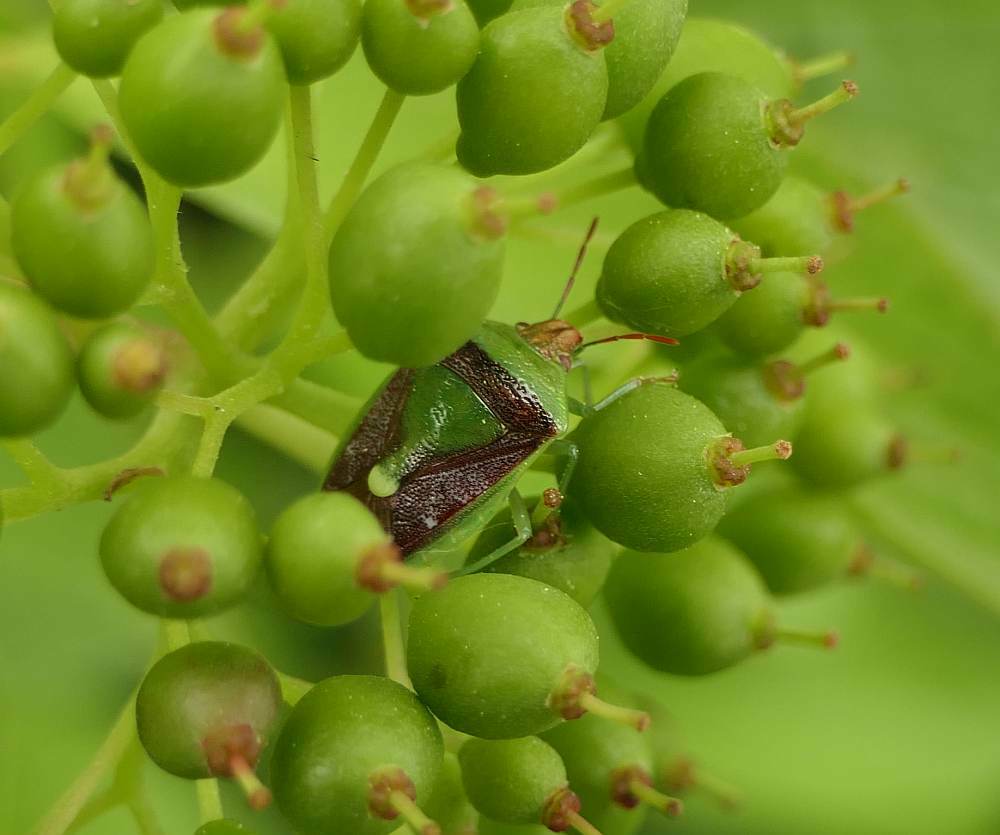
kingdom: Animalia
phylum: Arthropoda
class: Insecta
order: Hemiptera
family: Pentatomidae
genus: Banasa
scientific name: Banasa dimidiata
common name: Green burgundy stink bug
